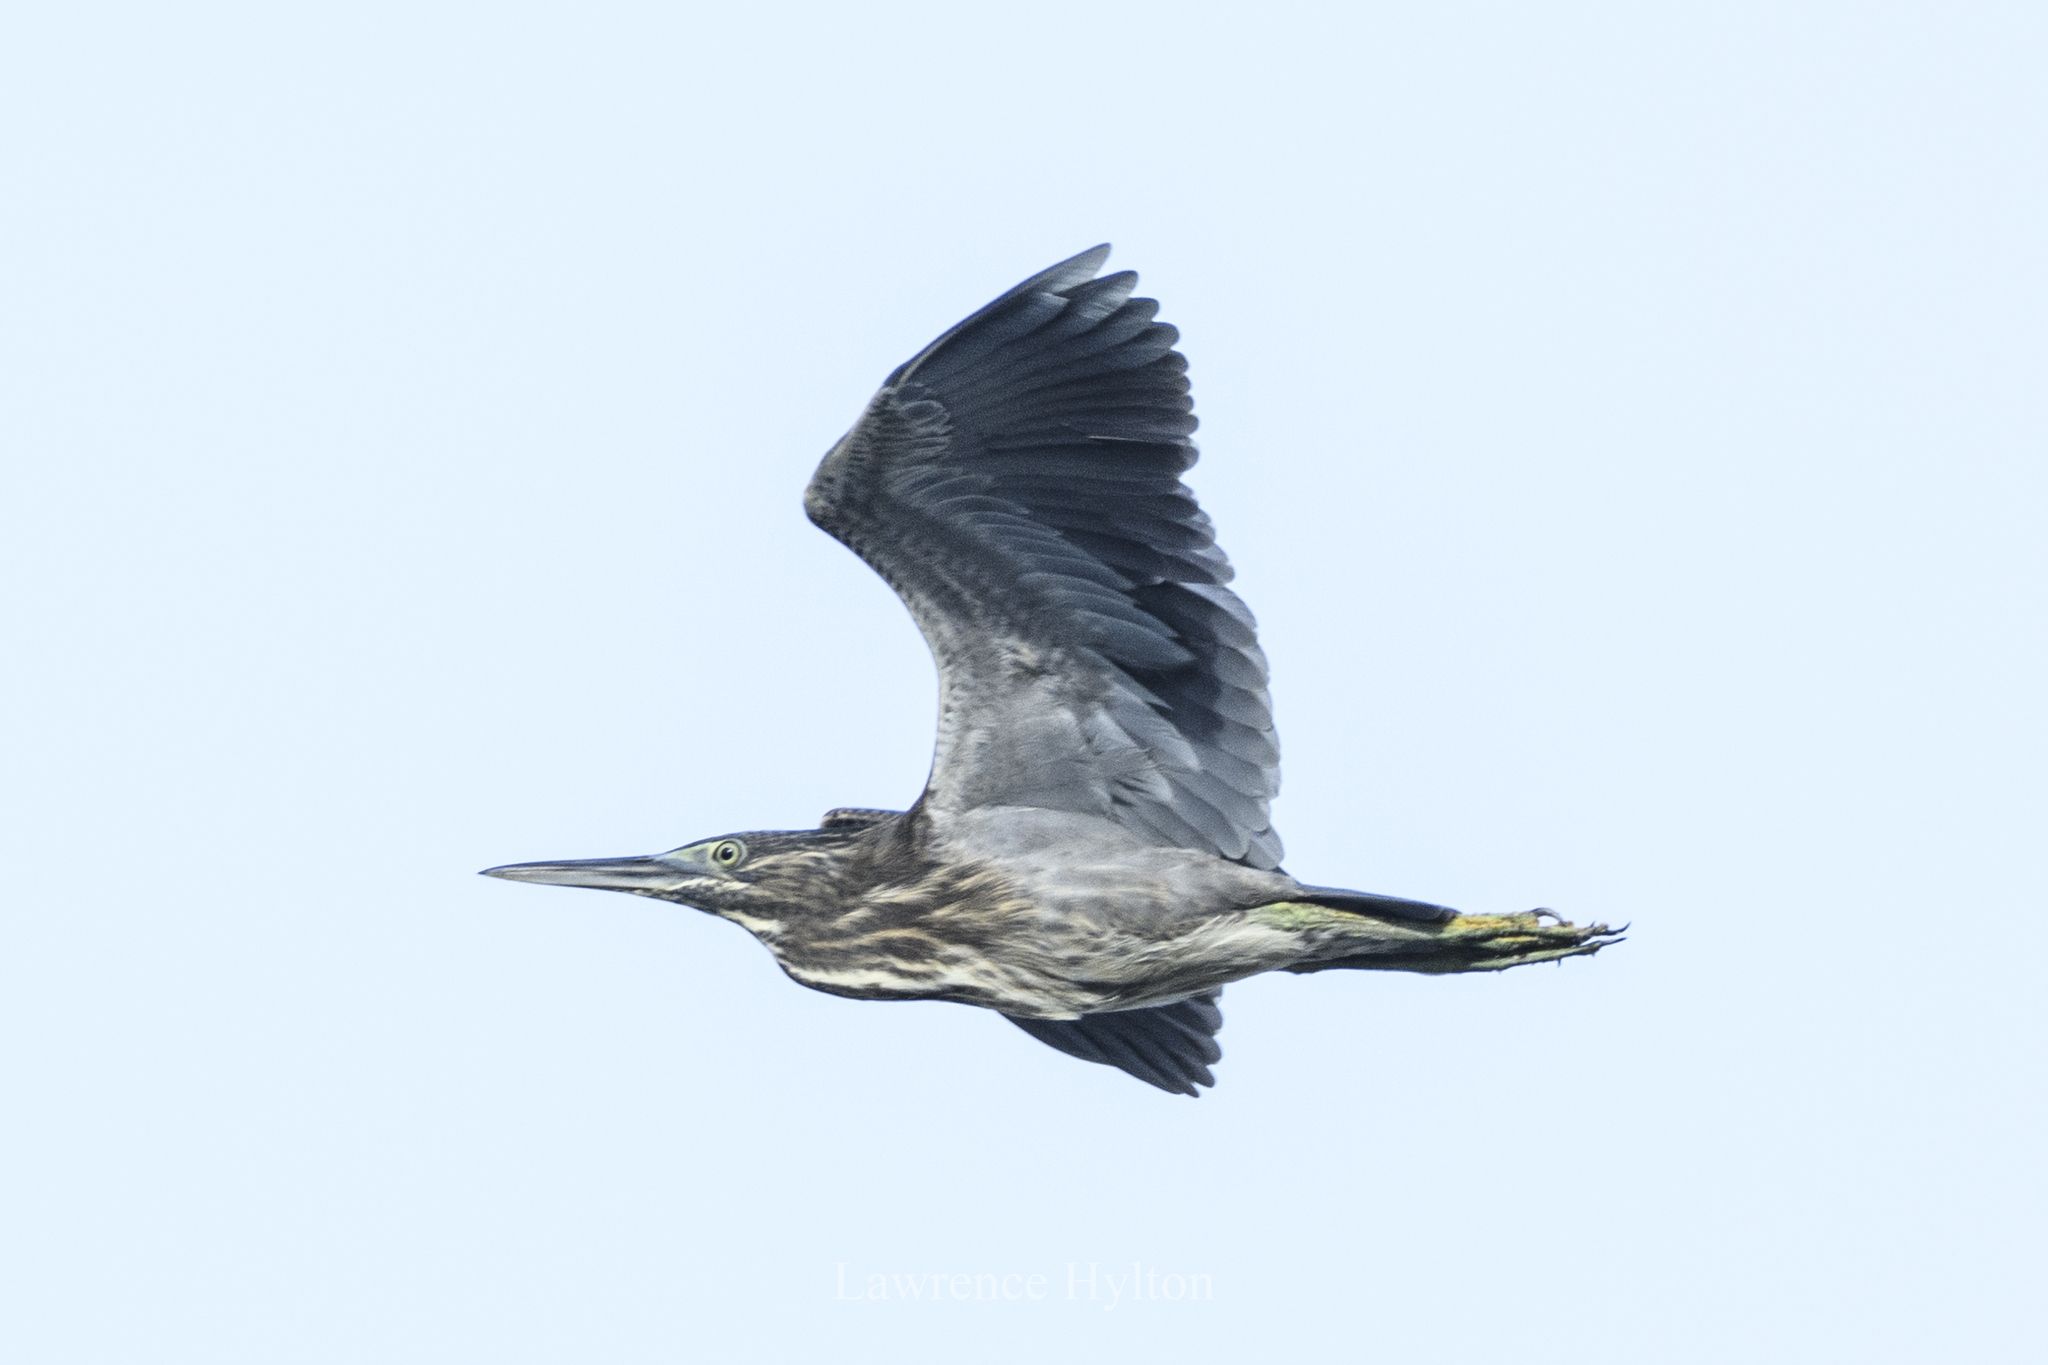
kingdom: Animalia
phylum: Chordata
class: Aves
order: Pelecaniformes
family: Ardeidae
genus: Butorides
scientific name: Butorides striata
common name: Striated heron
